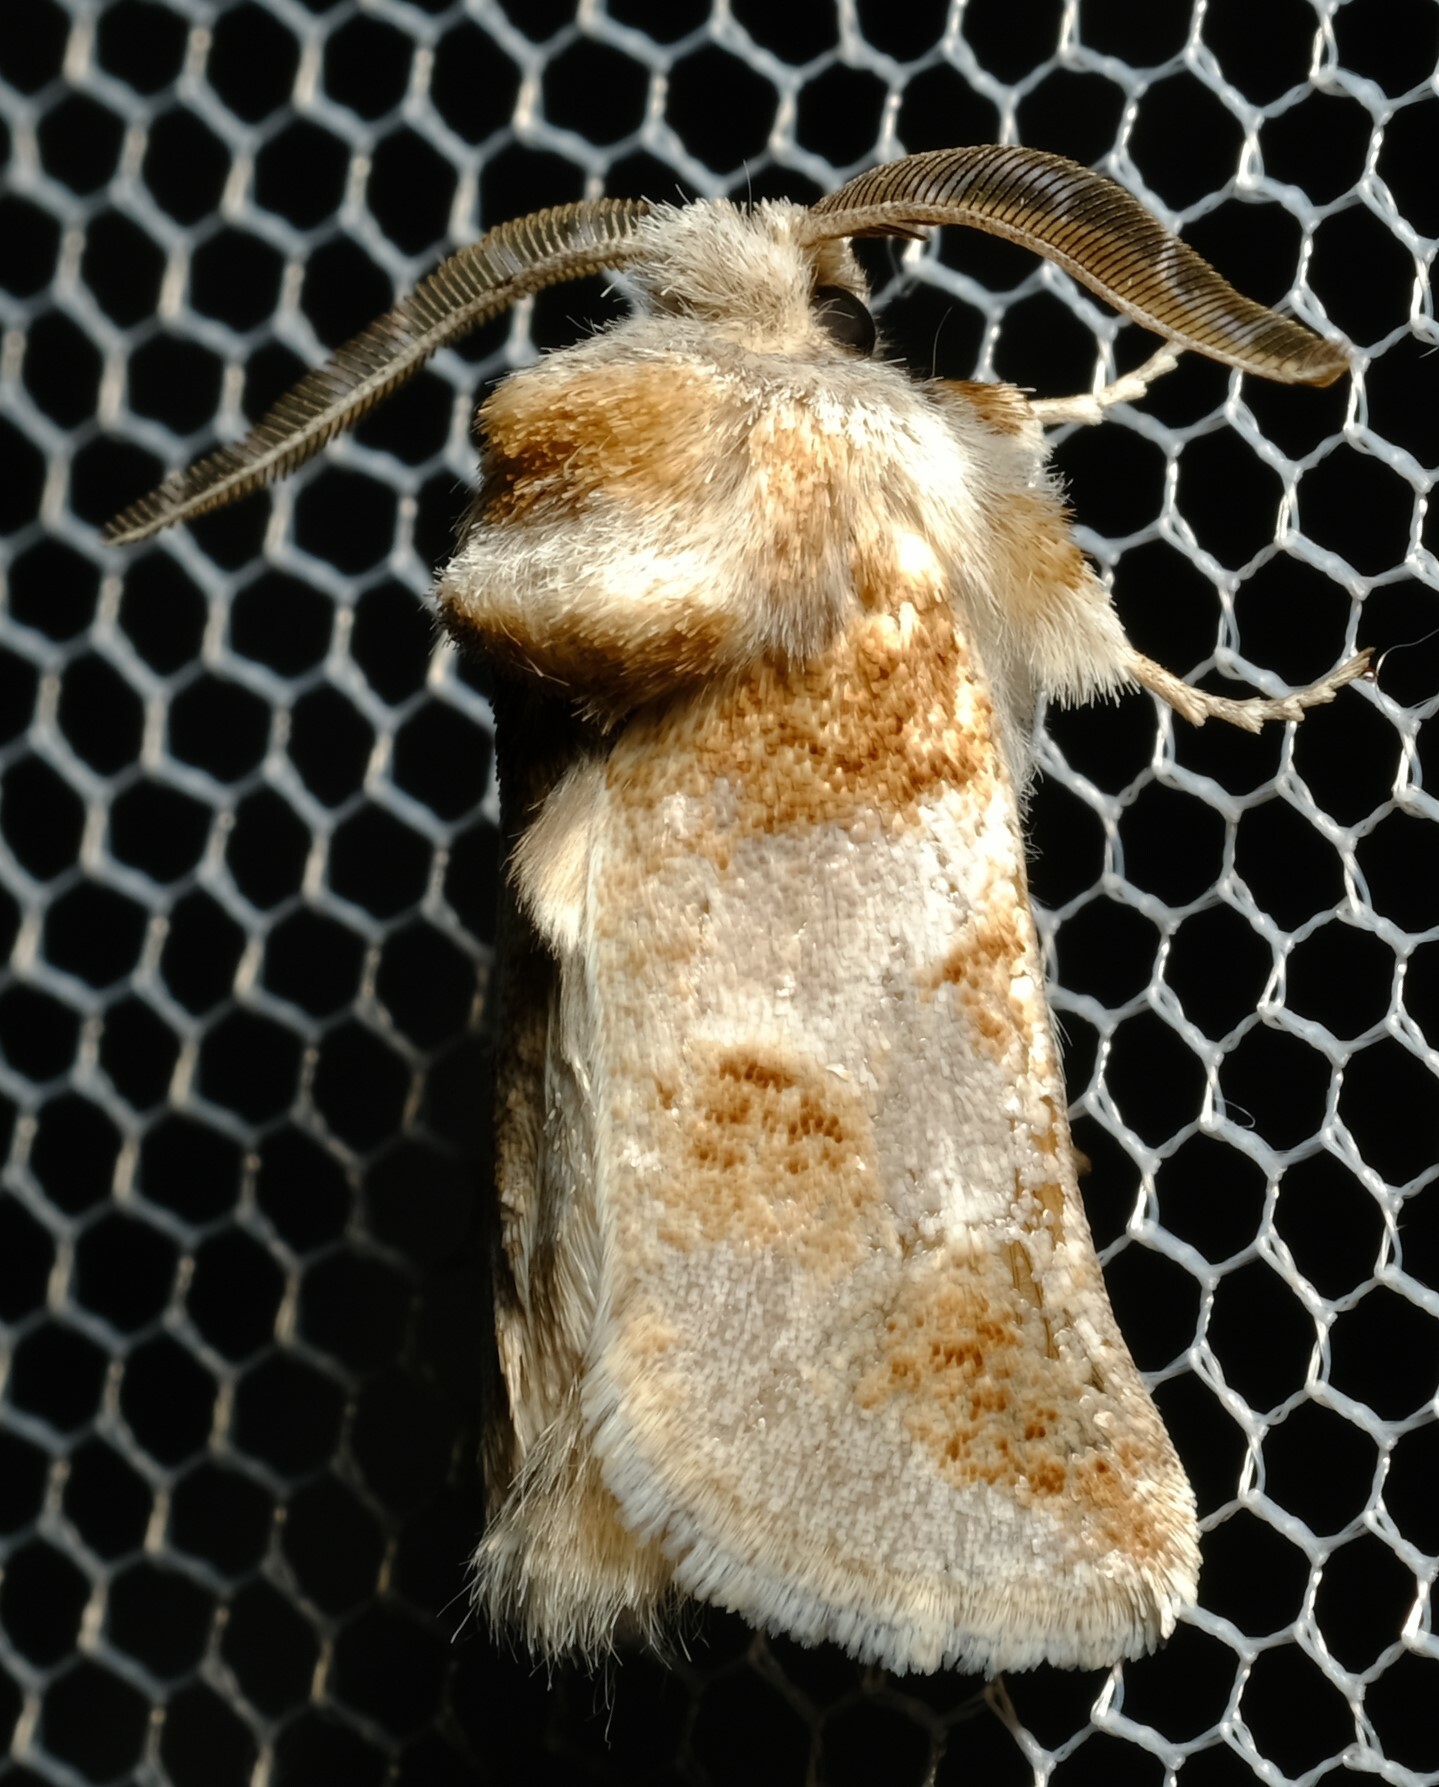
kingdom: Animalia
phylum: Arthropoda
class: Insecta
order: Lepidoptera
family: Cossidae
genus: Culama
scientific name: Culama dasythrix
